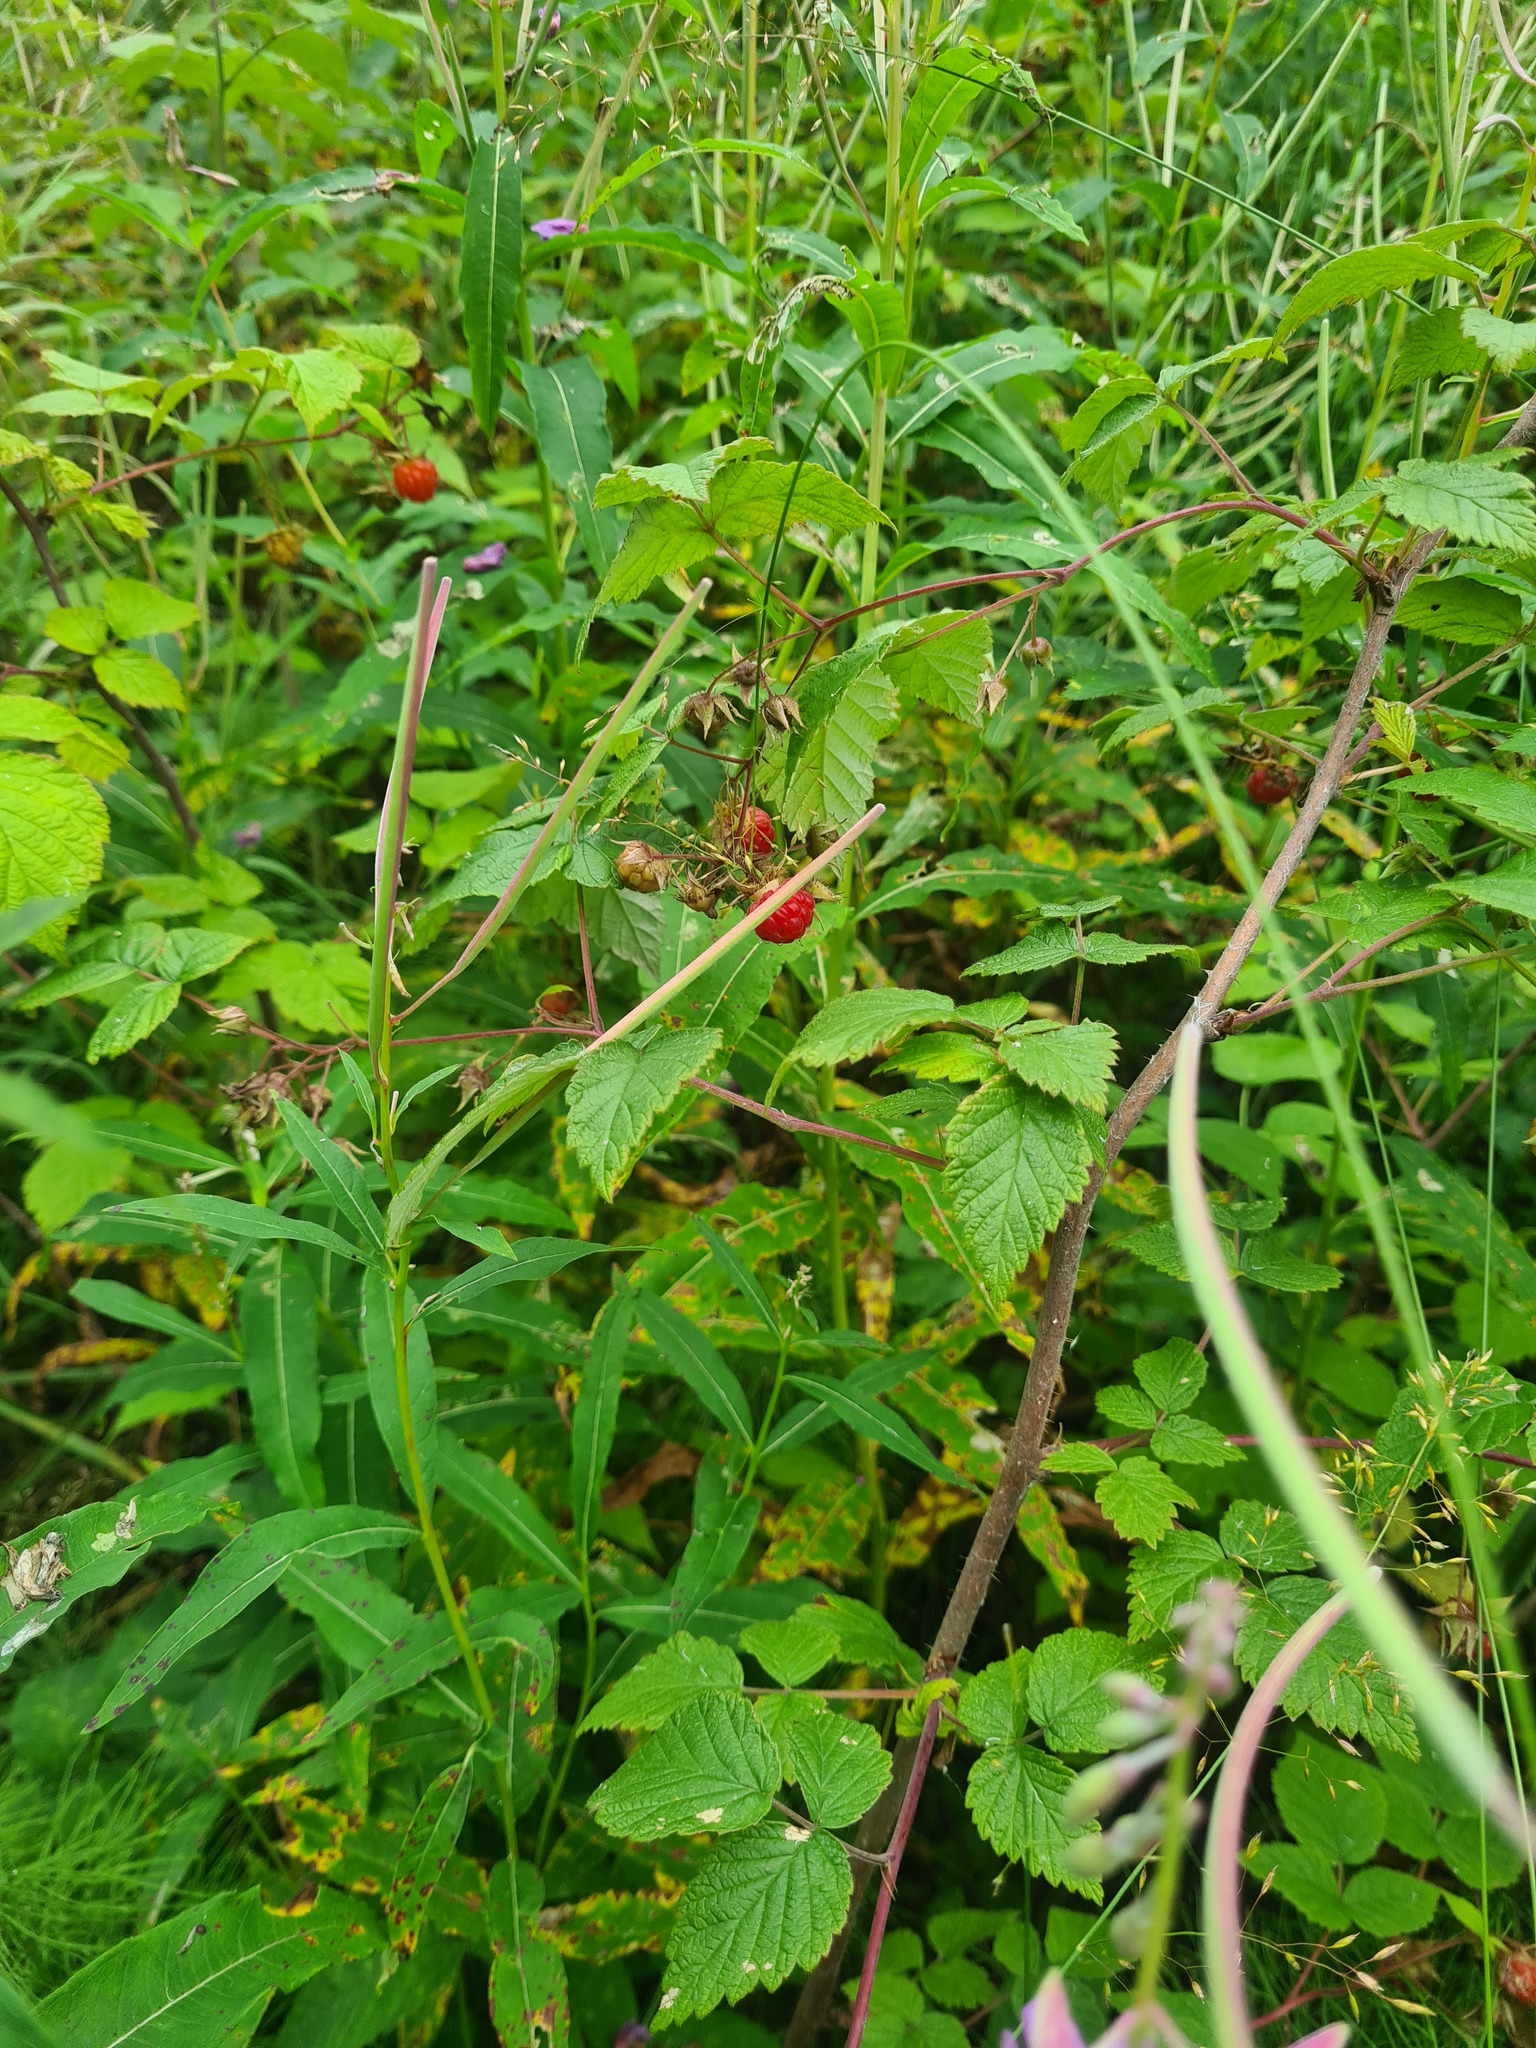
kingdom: Plantae
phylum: Tracheophyta
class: Magnoliopsida
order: Rosales
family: Rosaceae
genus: Rubus
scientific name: Rubus idaeus
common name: Raspberry
